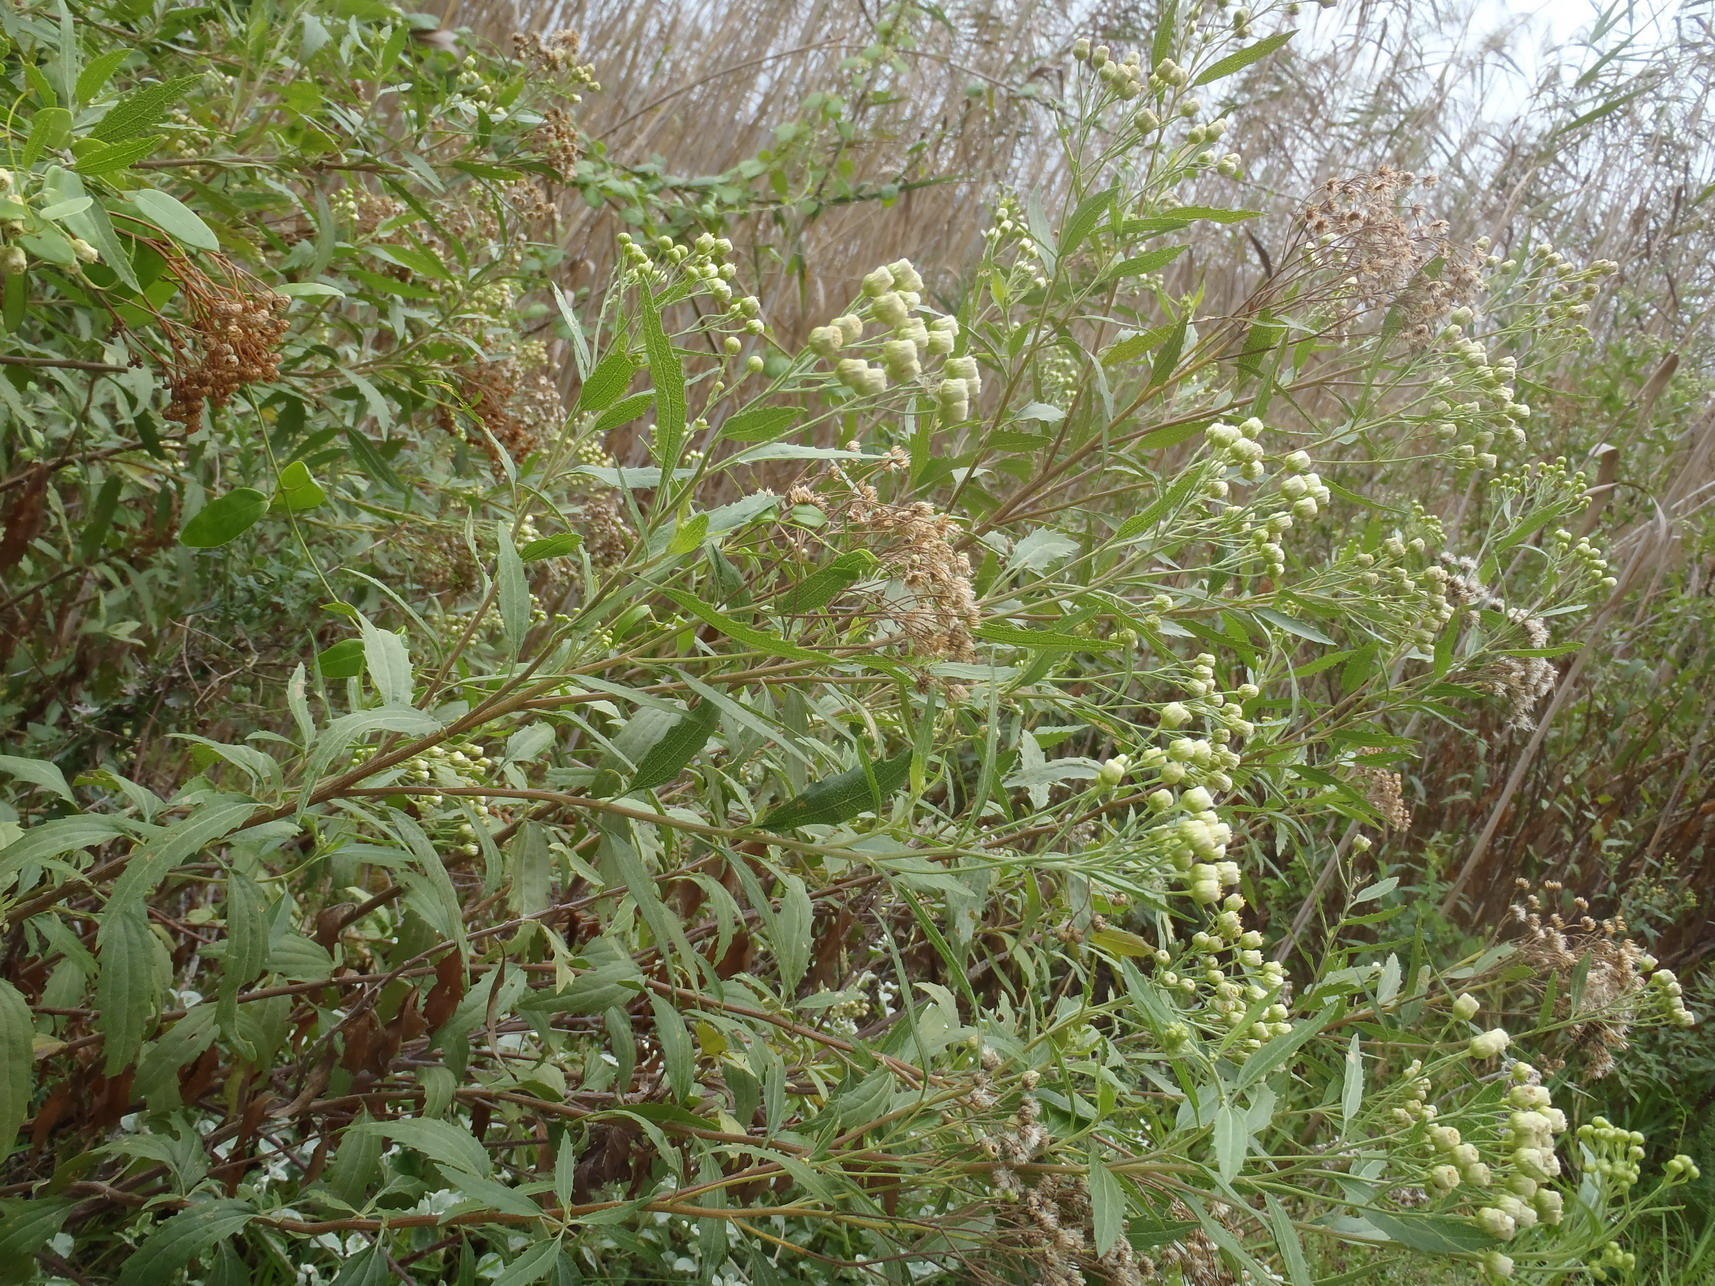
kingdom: Plantae
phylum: Tracheophyta
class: Magnoliopsida
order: Asterales
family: Asteraceae
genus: Nidorella
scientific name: Nidorella ivifolia
